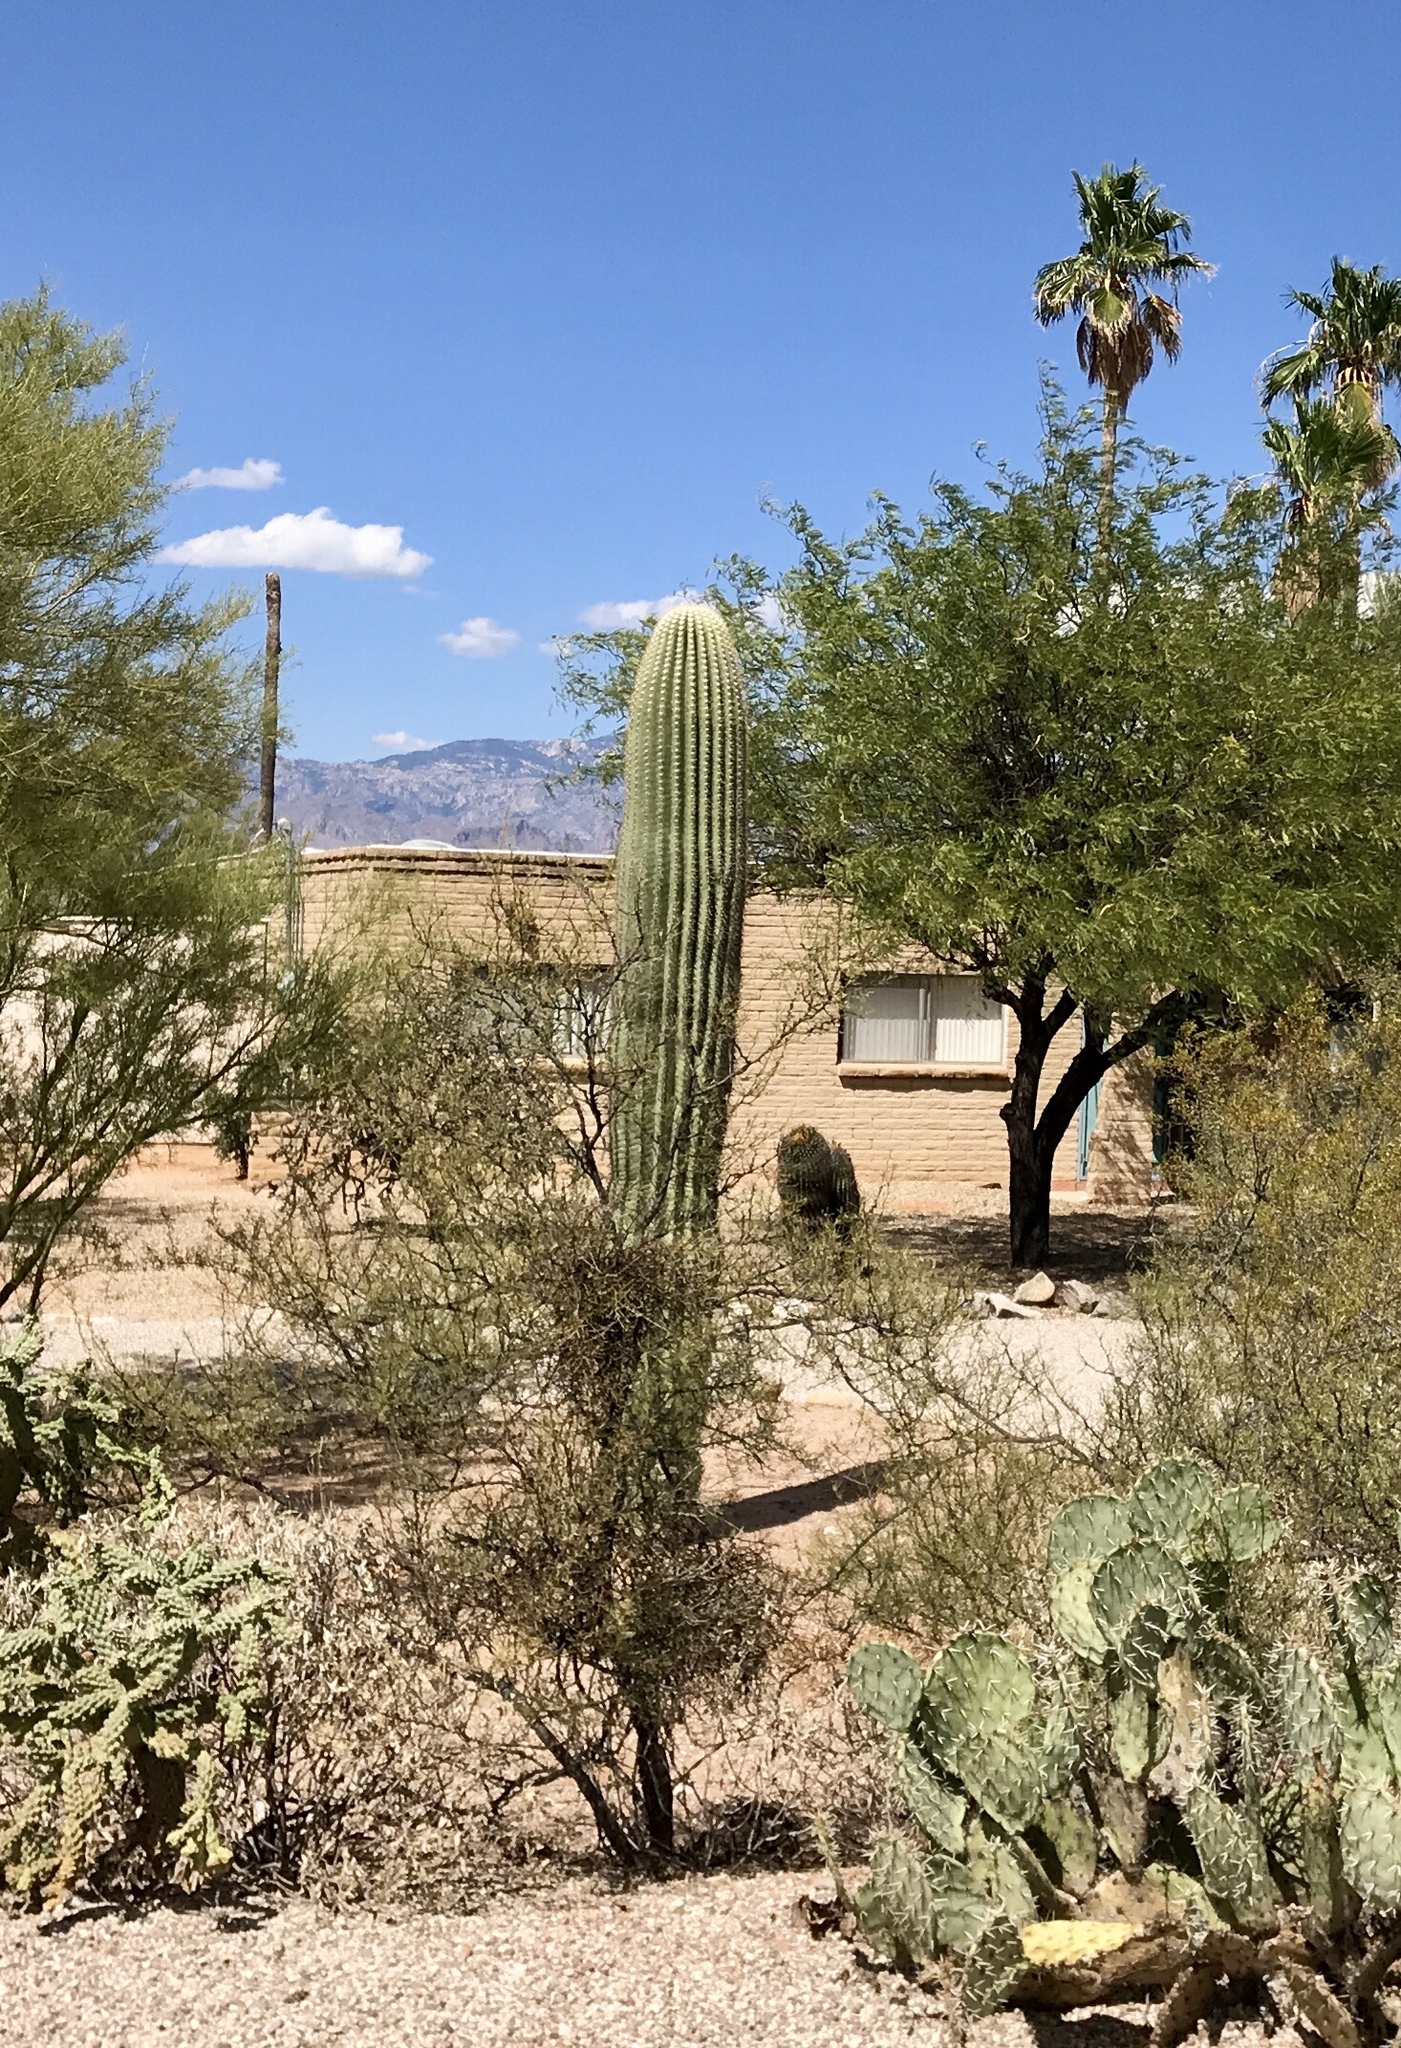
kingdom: Plantae
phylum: Tracheophyta
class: Magnoliopsida
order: Caryophyllales
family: Cactaceae
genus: Carnegiea
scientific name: Carnegiea gigantea
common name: Saguaro
